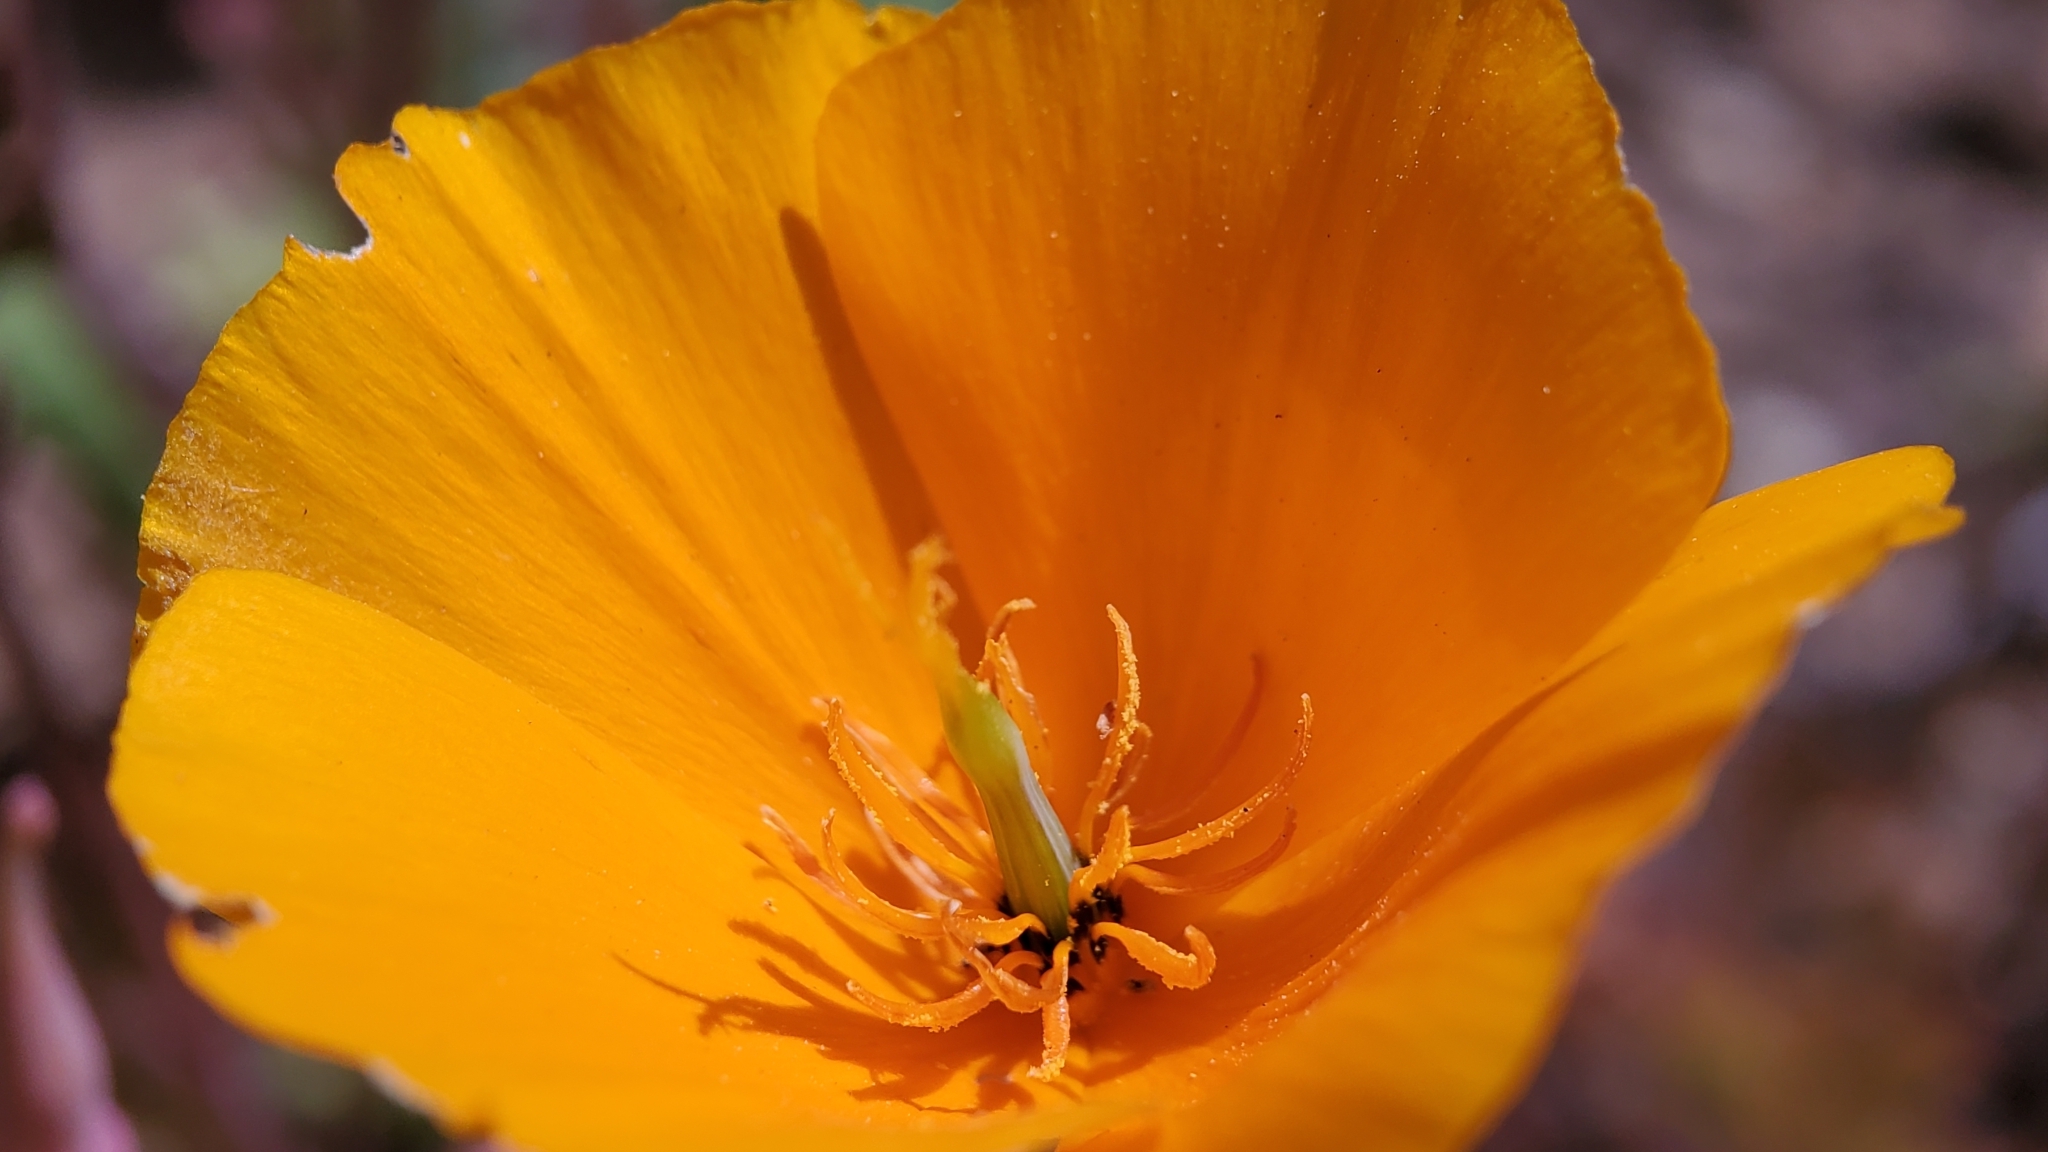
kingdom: Plantae
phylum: Tracheophyta
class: Magnoliopsida
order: Ranunculales
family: Papaveraceae
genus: Eschscholzia
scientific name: Eschscholzia californica
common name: California poppy
